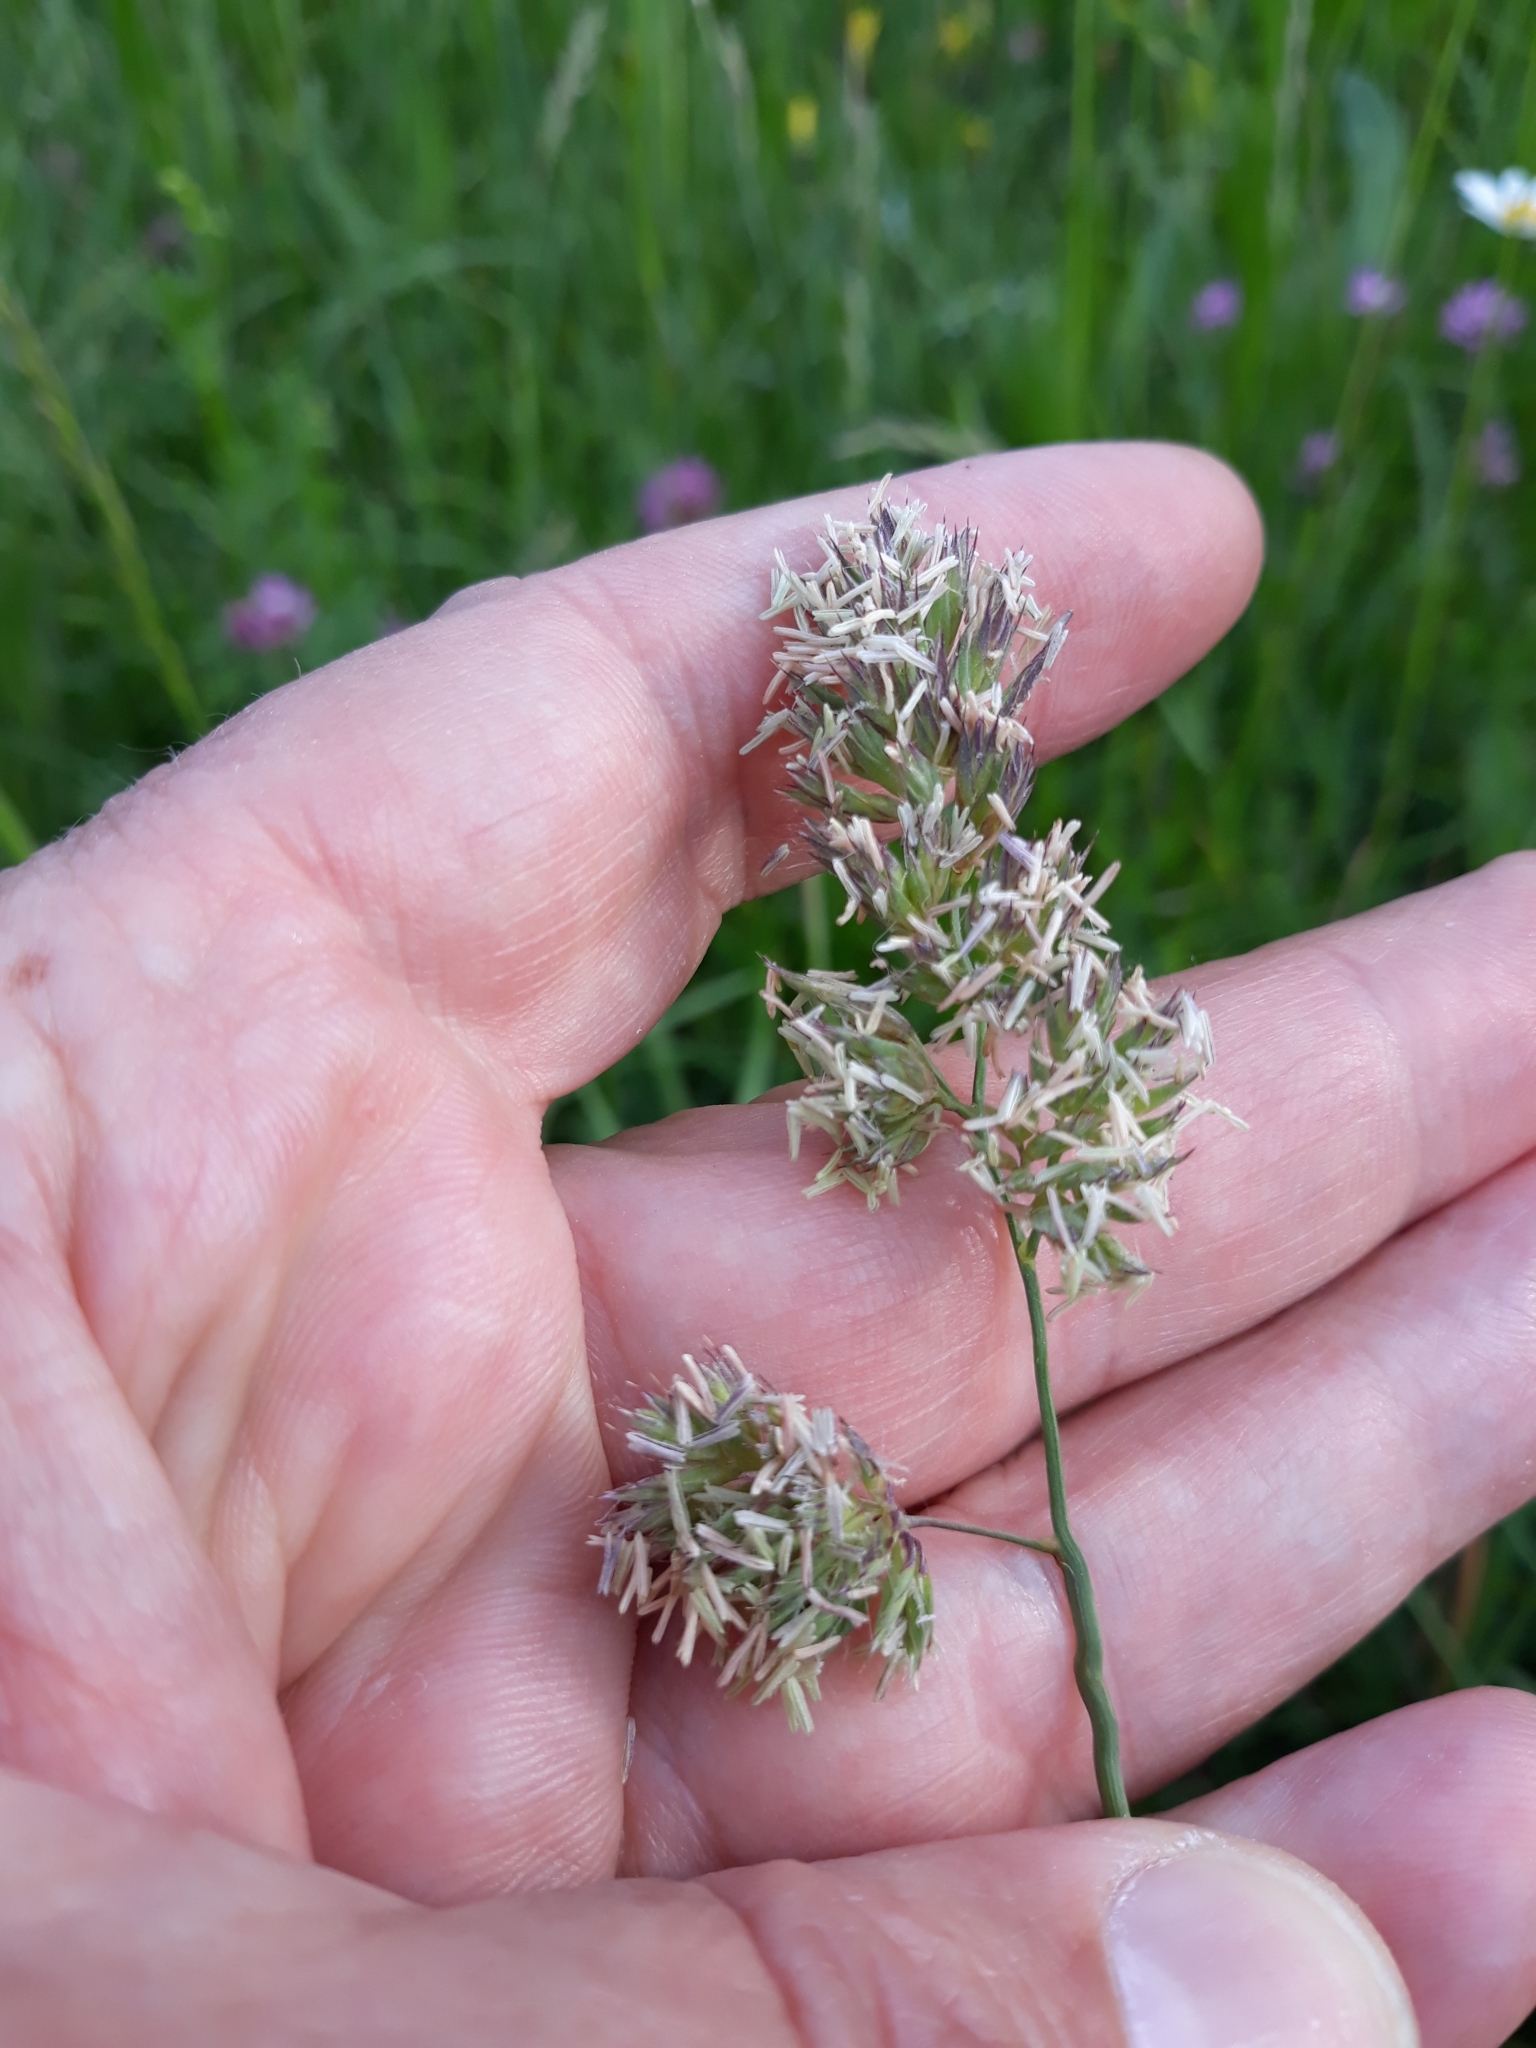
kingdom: Plantae
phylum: Tracheophyta
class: Liliopsida
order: Poales
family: Poaceae
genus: Dactylis
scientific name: Dactylis glomerata
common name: Orchardgrass
